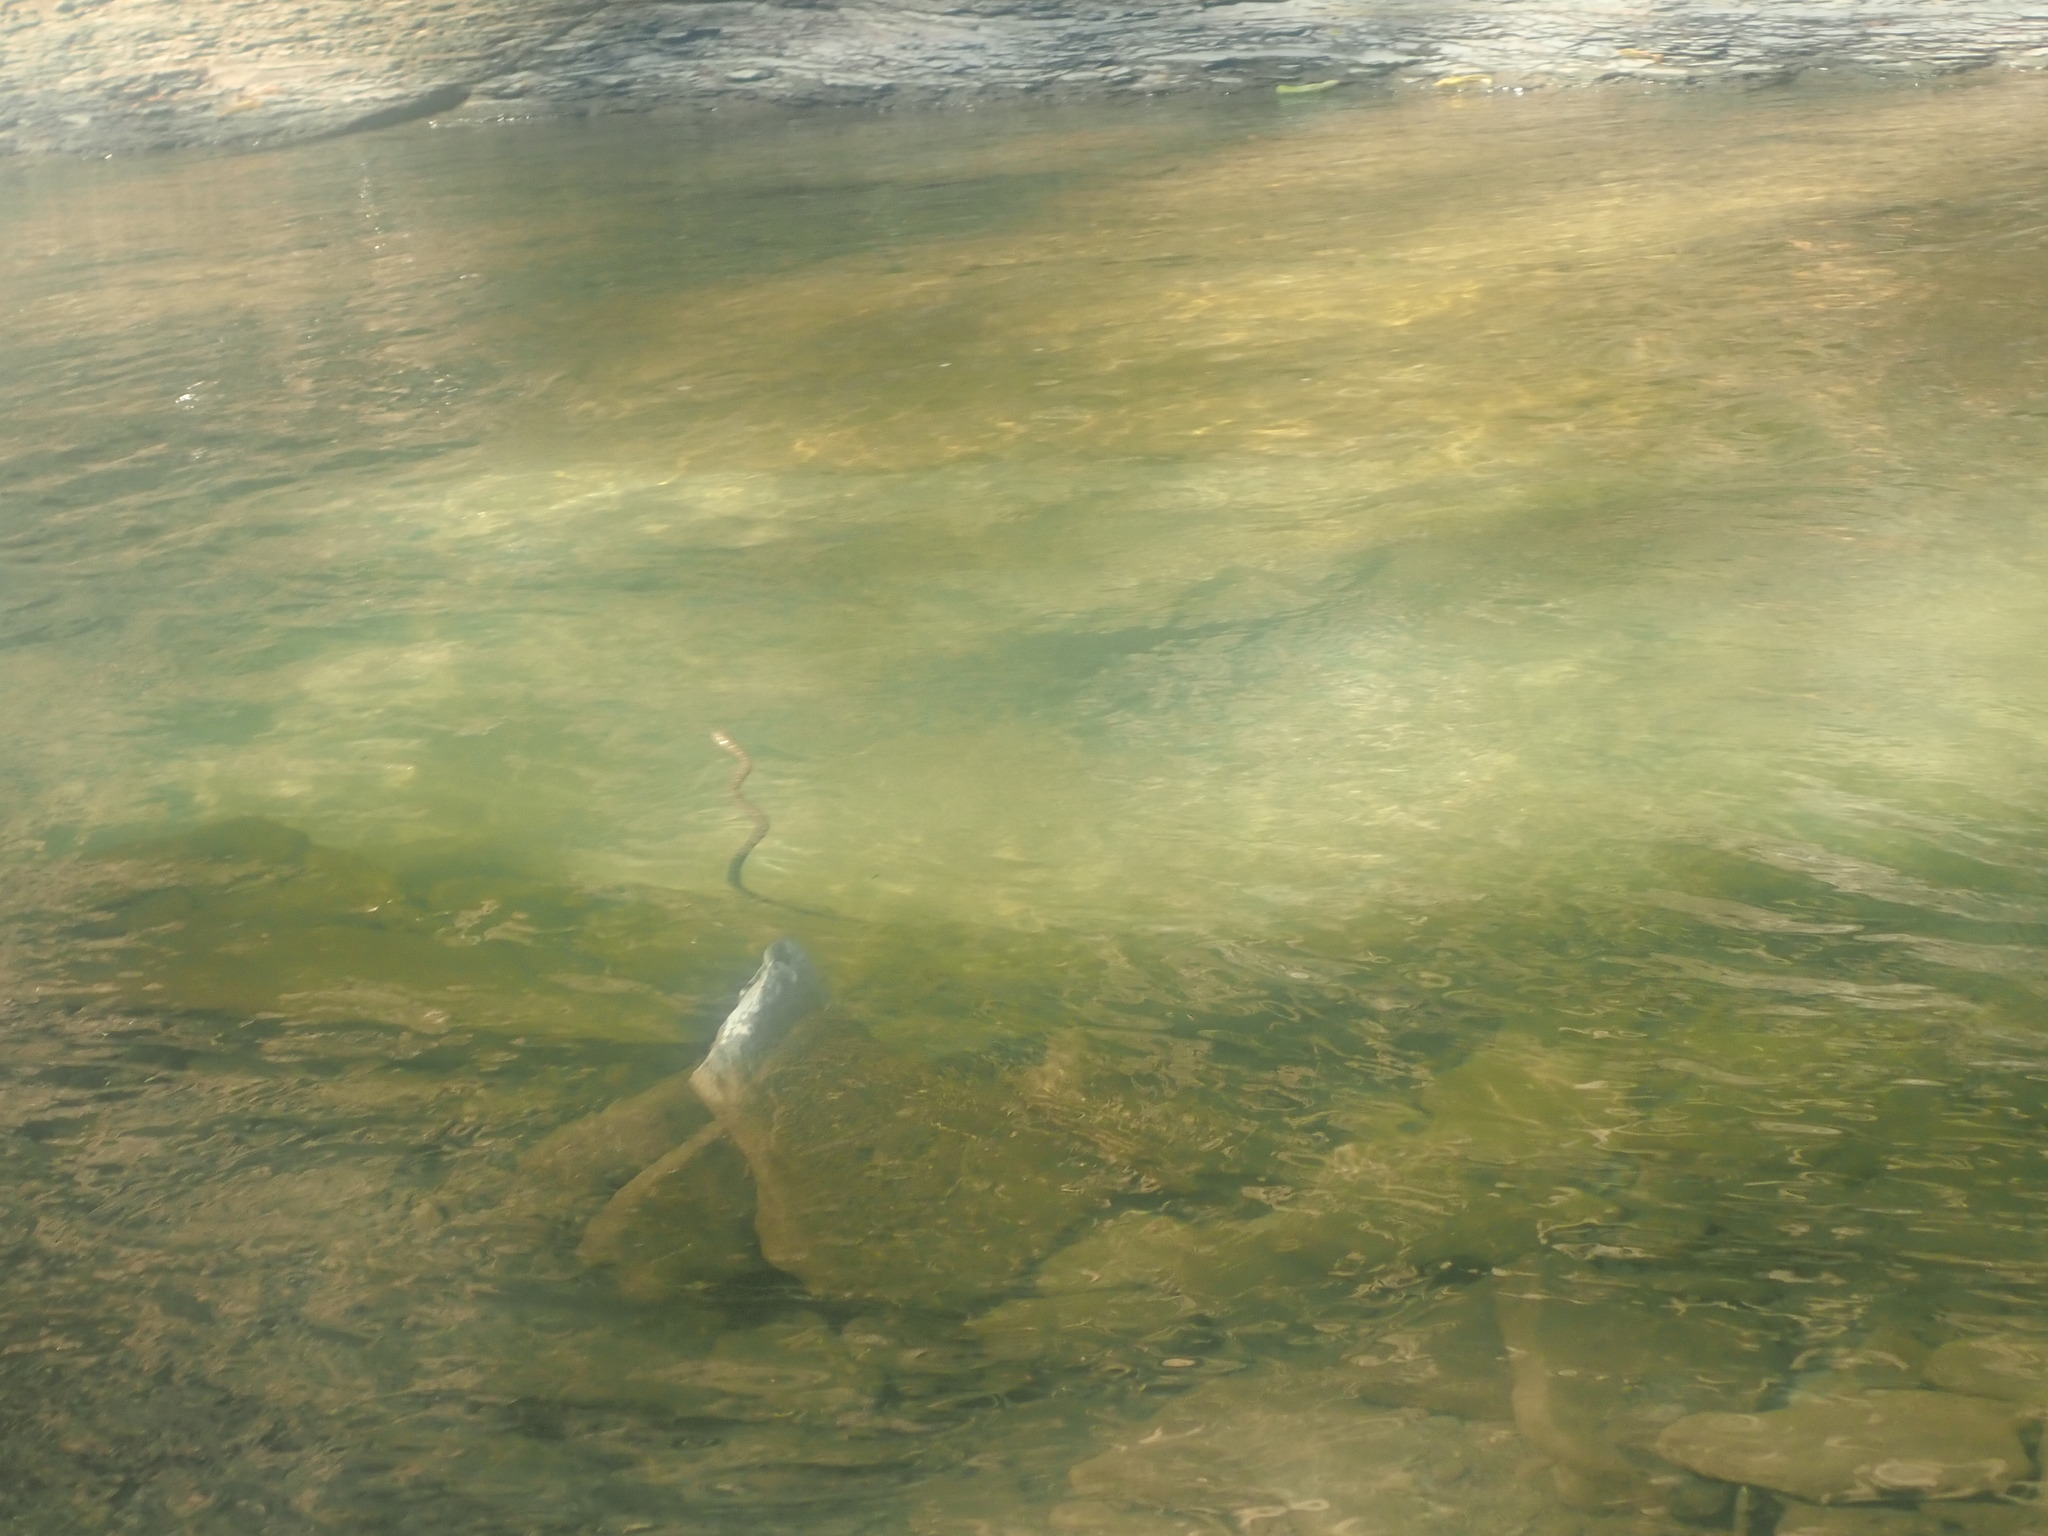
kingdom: Animalia
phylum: Chordata
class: Squamata
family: Colubridae
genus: Nerodia
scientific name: Nerodia sipedon
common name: Northern water snake
